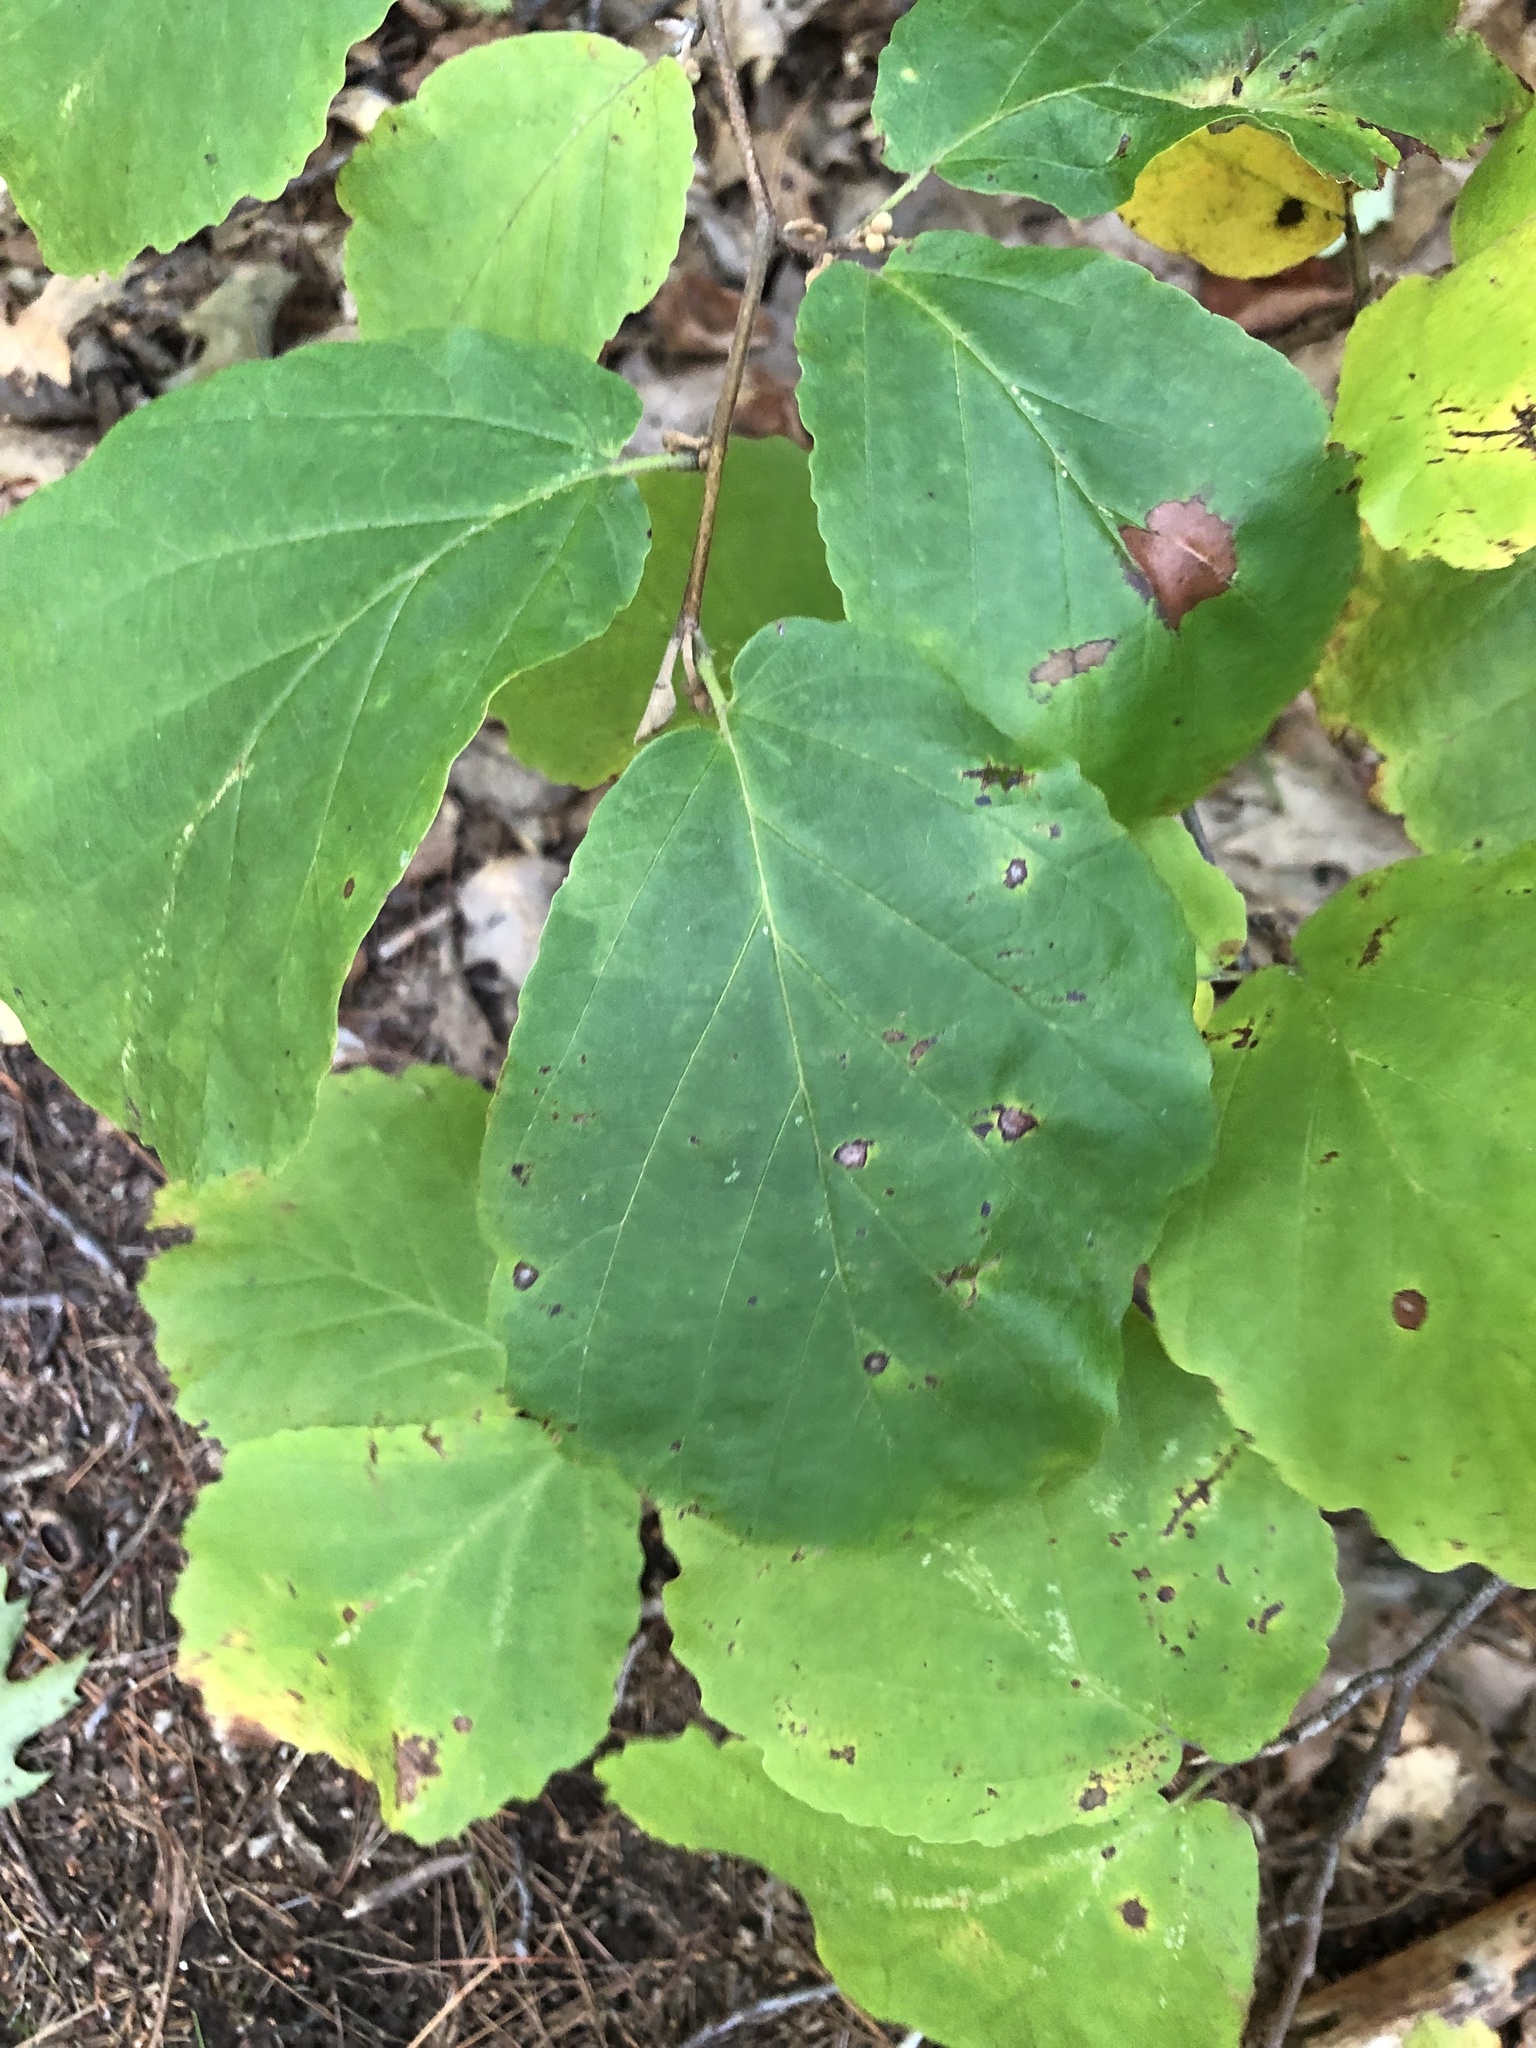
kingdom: Plantae
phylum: Tracheophyta
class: Magnoliopsida
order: Saxifragales
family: Hamamelidaceae
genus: Hamamelis
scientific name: Hamamelis virginiana
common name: Witch-hazel
